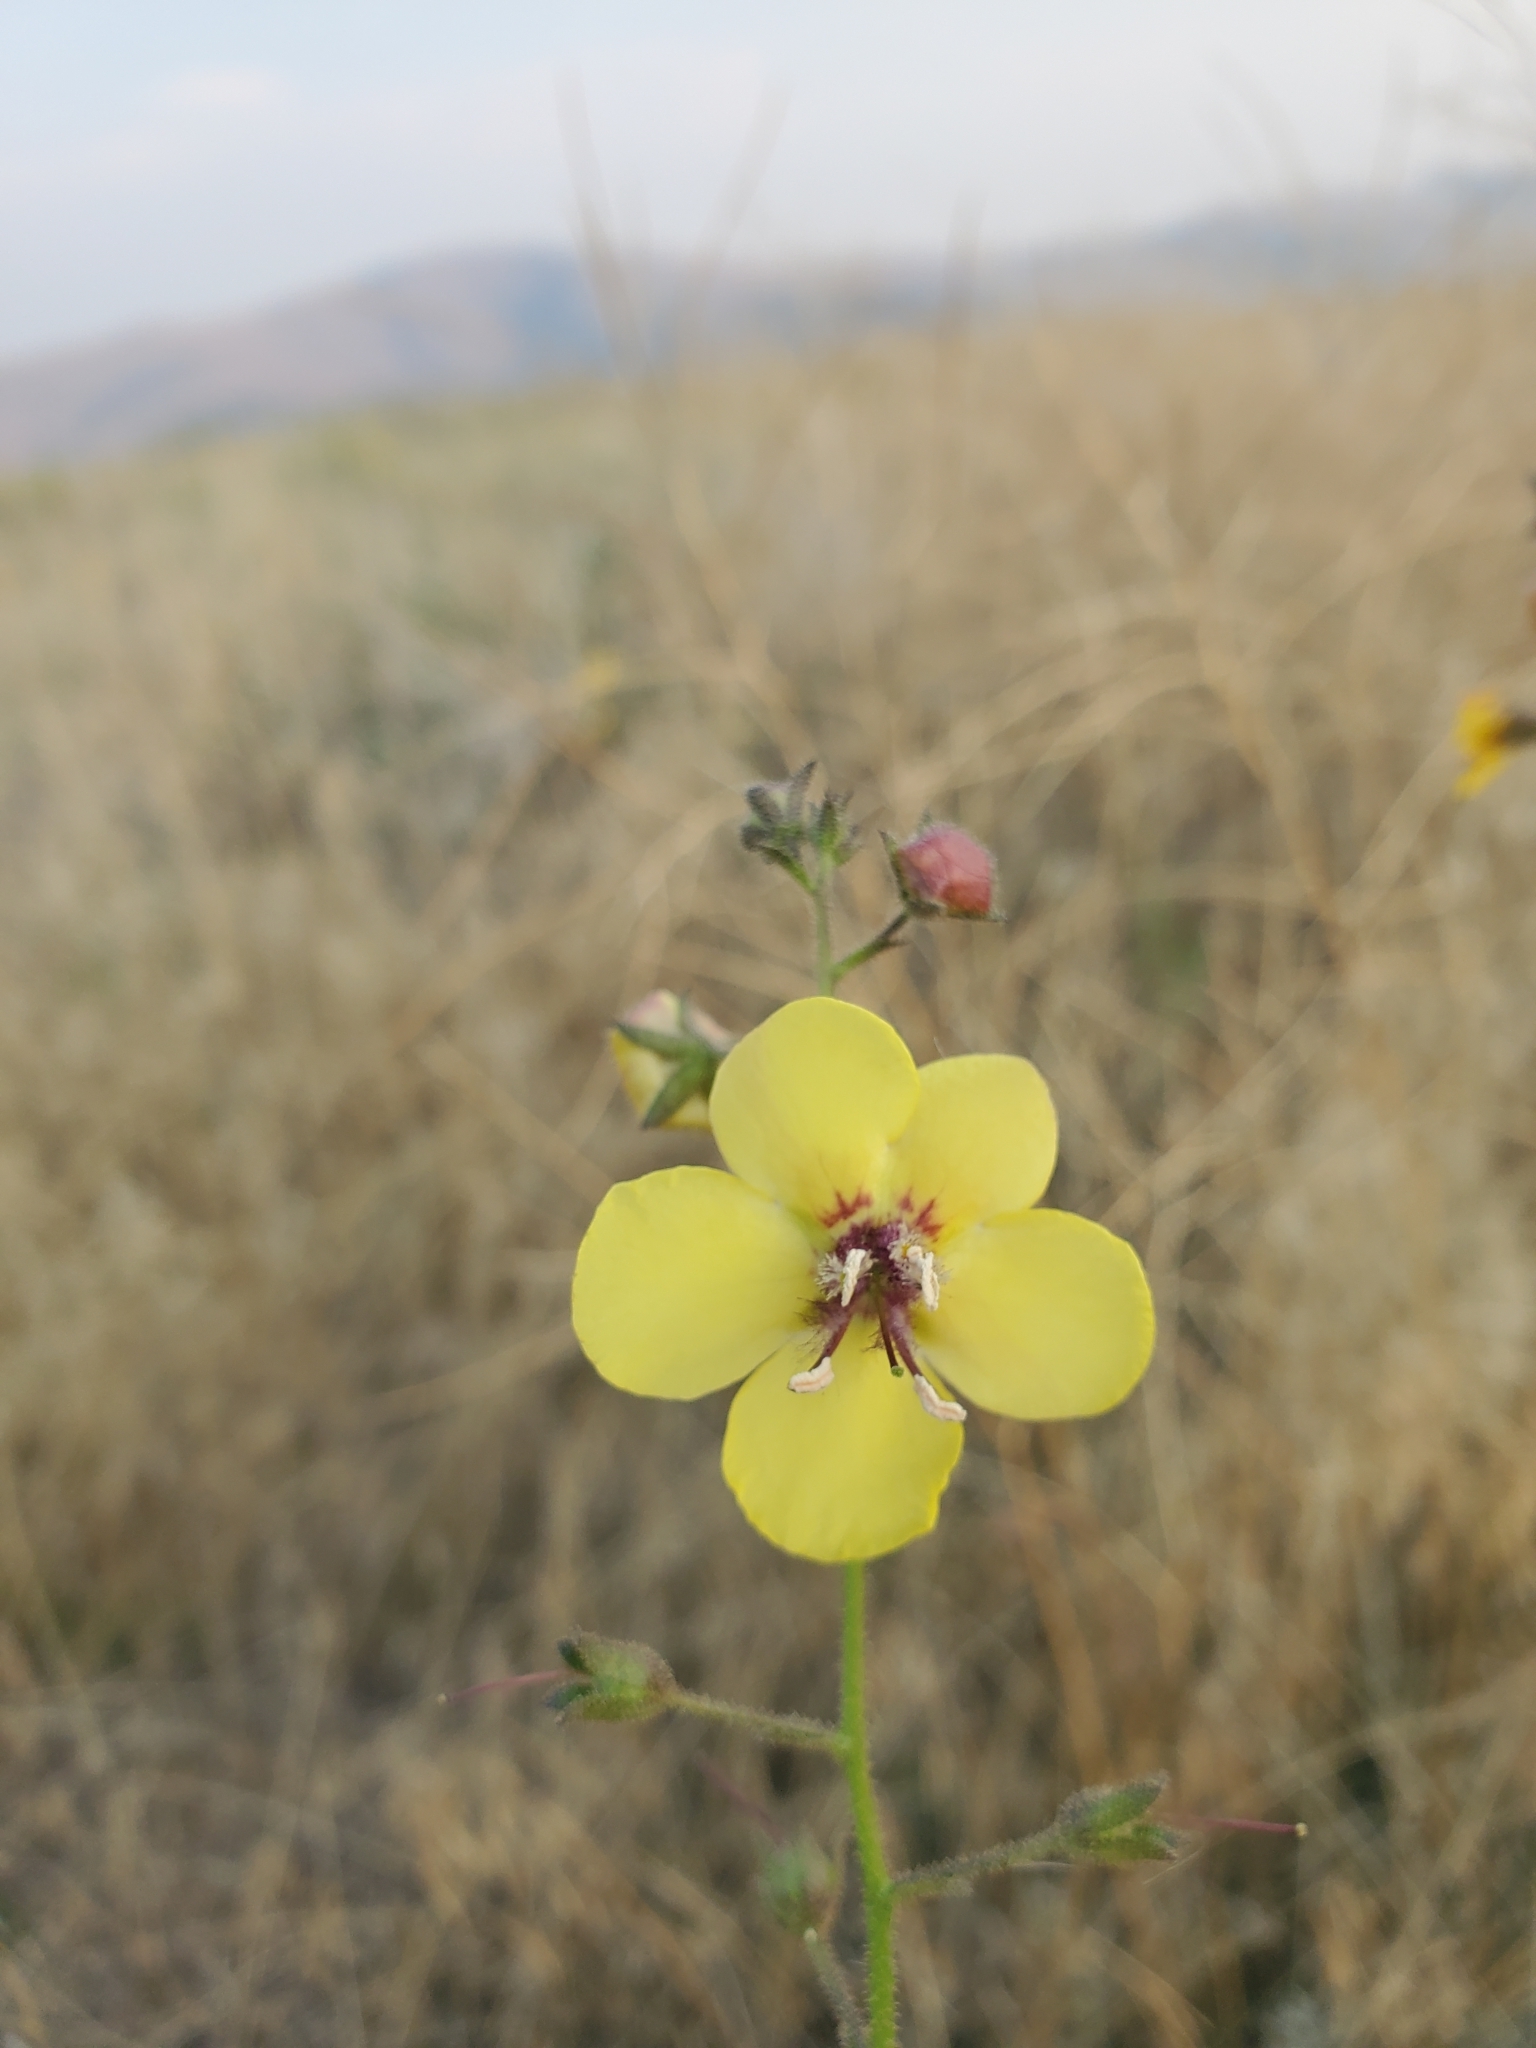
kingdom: Plantae
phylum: Tracheophyta
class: Magnoliopsida
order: Lamiales
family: Scrophulariaceae
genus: Verbascum
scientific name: Verbascum blattaria
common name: Moth mullein
